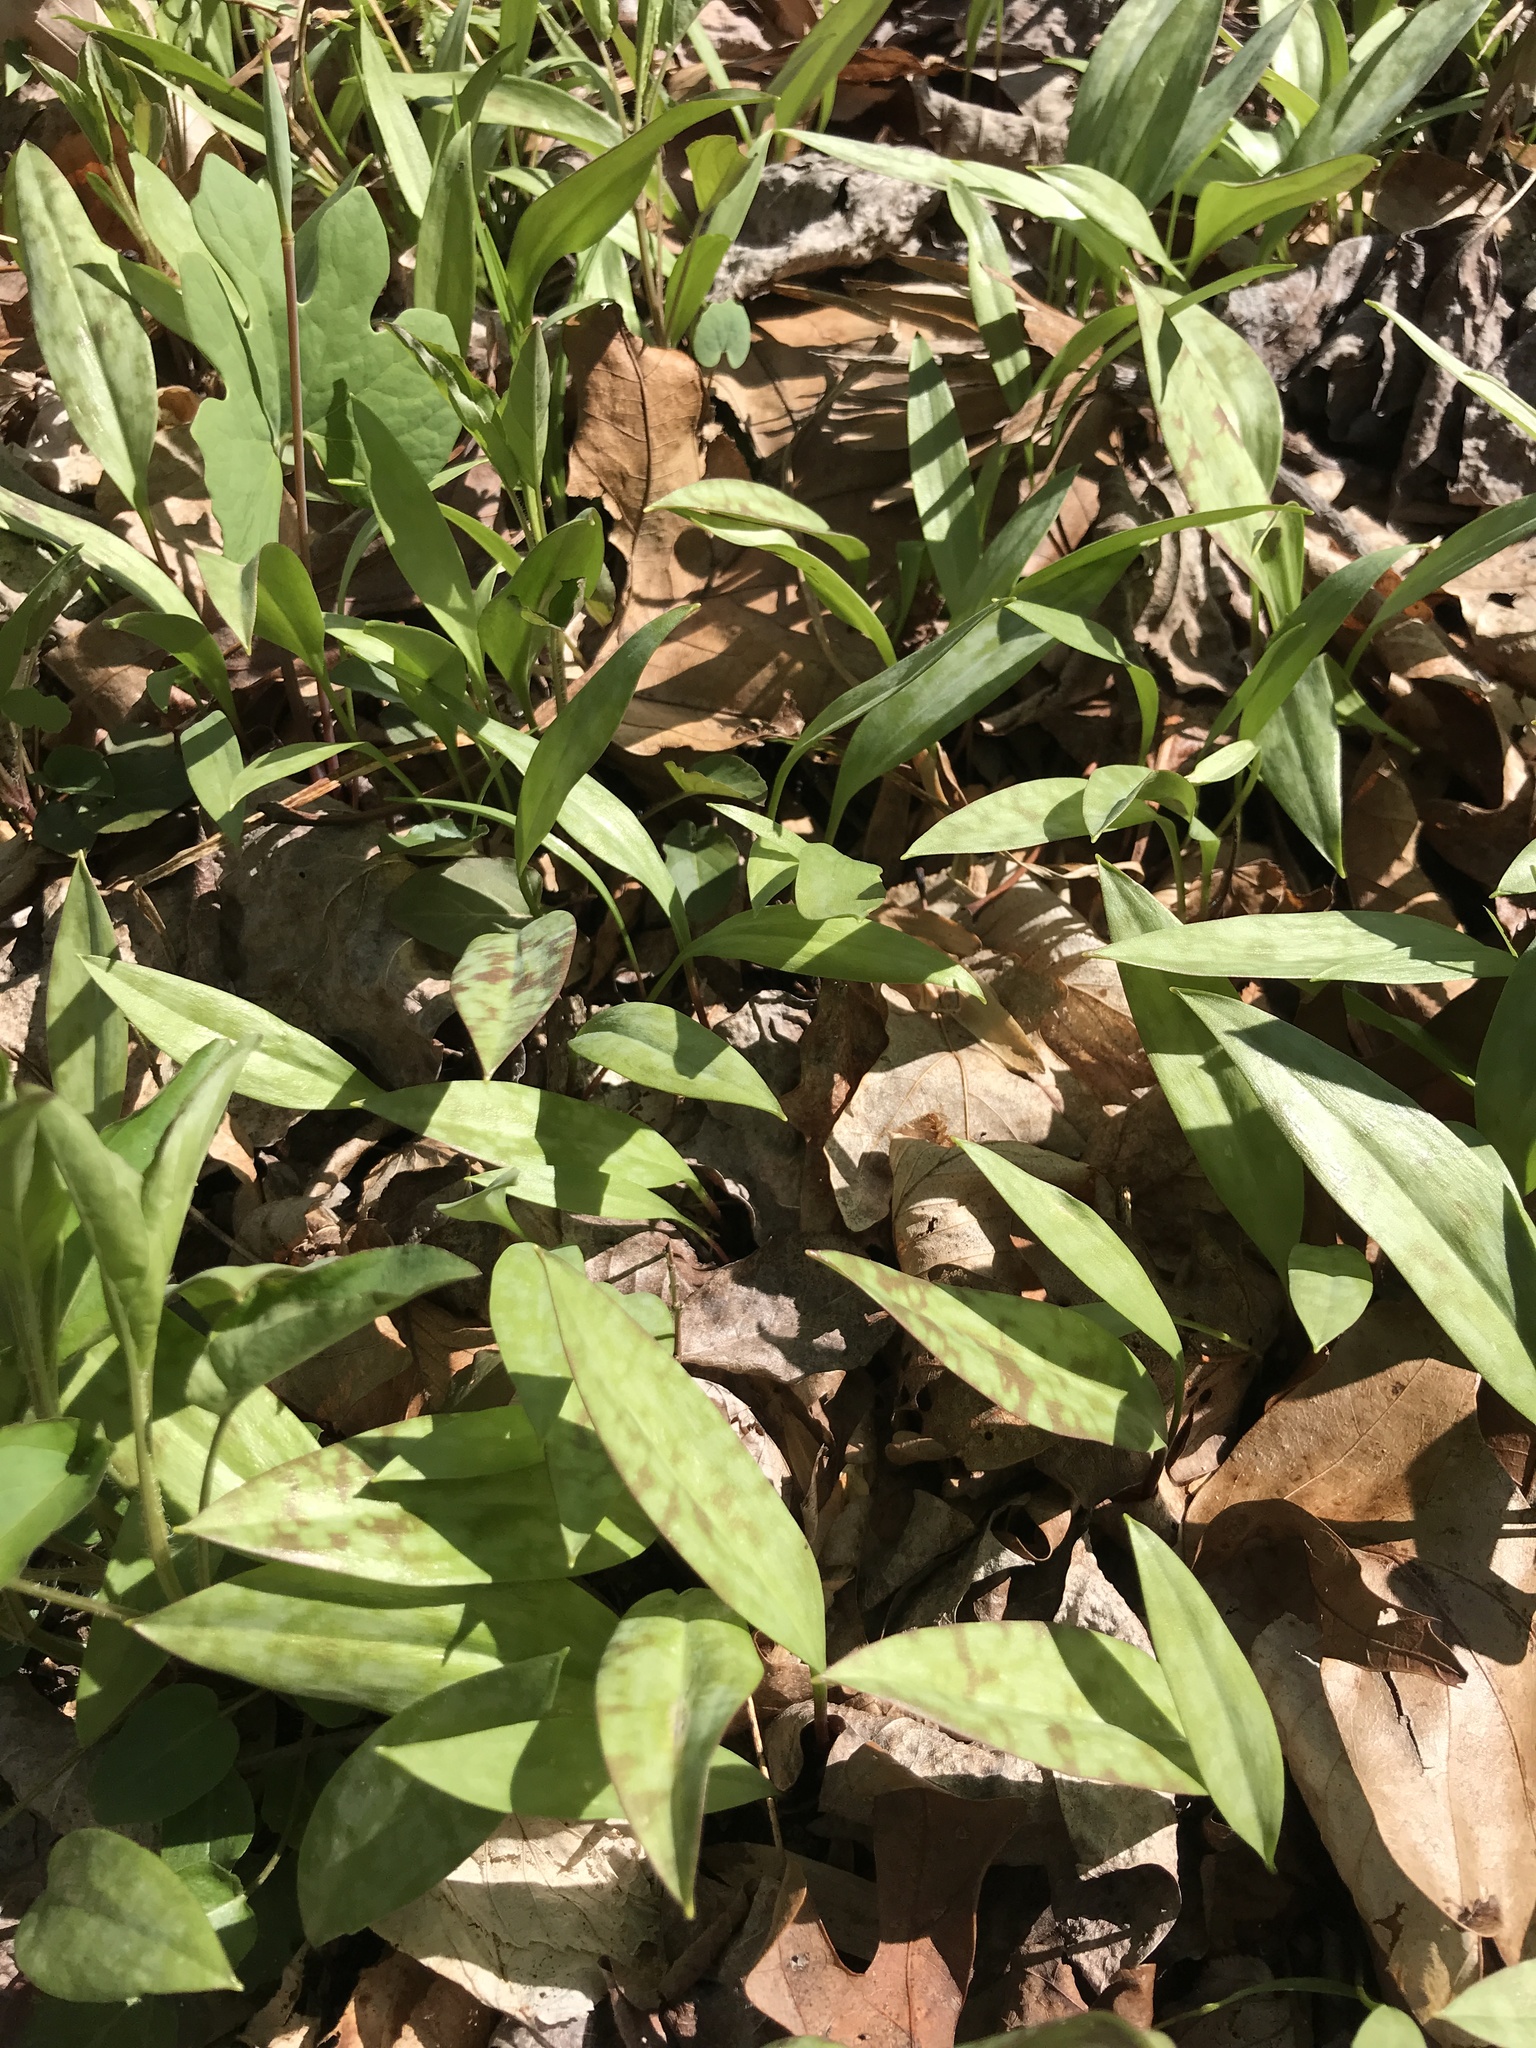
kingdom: Plantae
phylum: Tracheophyta
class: Liliopsida
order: Liliales
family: Liliaceae
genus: Erythronium
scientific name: Erythronium americanum
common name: Yellow adder's-tongue
